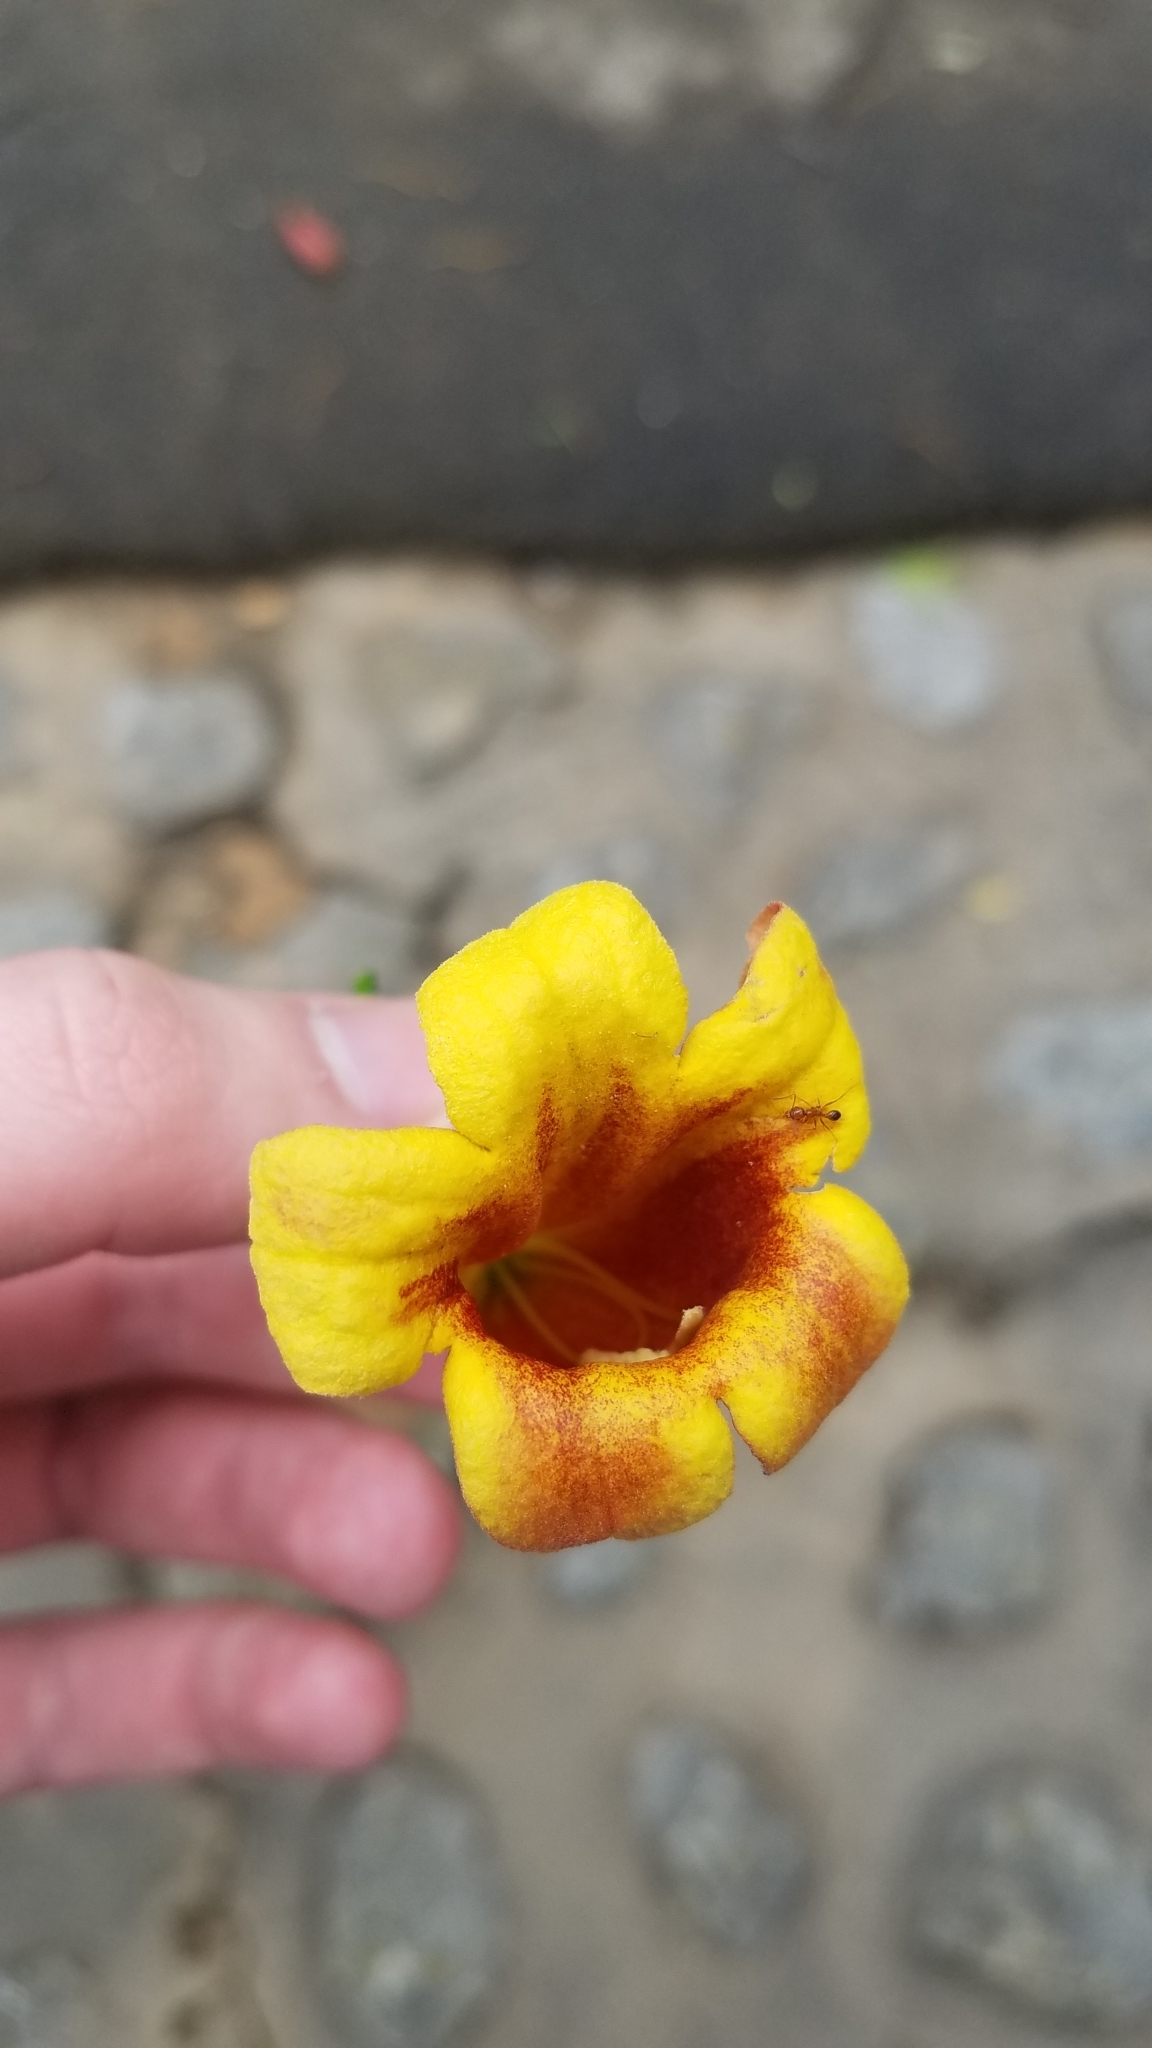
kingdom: Plantae
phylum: Tracheophyta
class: Magnoliopsida
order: Lamiales
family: Bignoniaceae
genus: Bignonia
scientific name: Bignonia capreolata
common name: Crossvine
